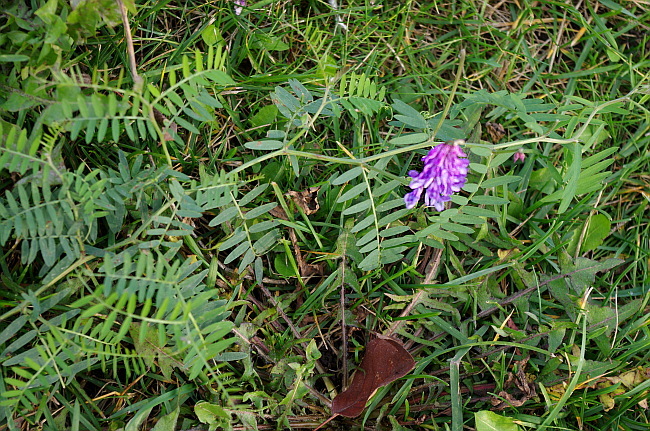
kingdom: Plantae
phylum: Tracheophyta
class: Magnoliopsida
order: Fabales
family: Fabaceae
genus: Vicia
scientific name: Vicia cracca
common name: Bird vetch
